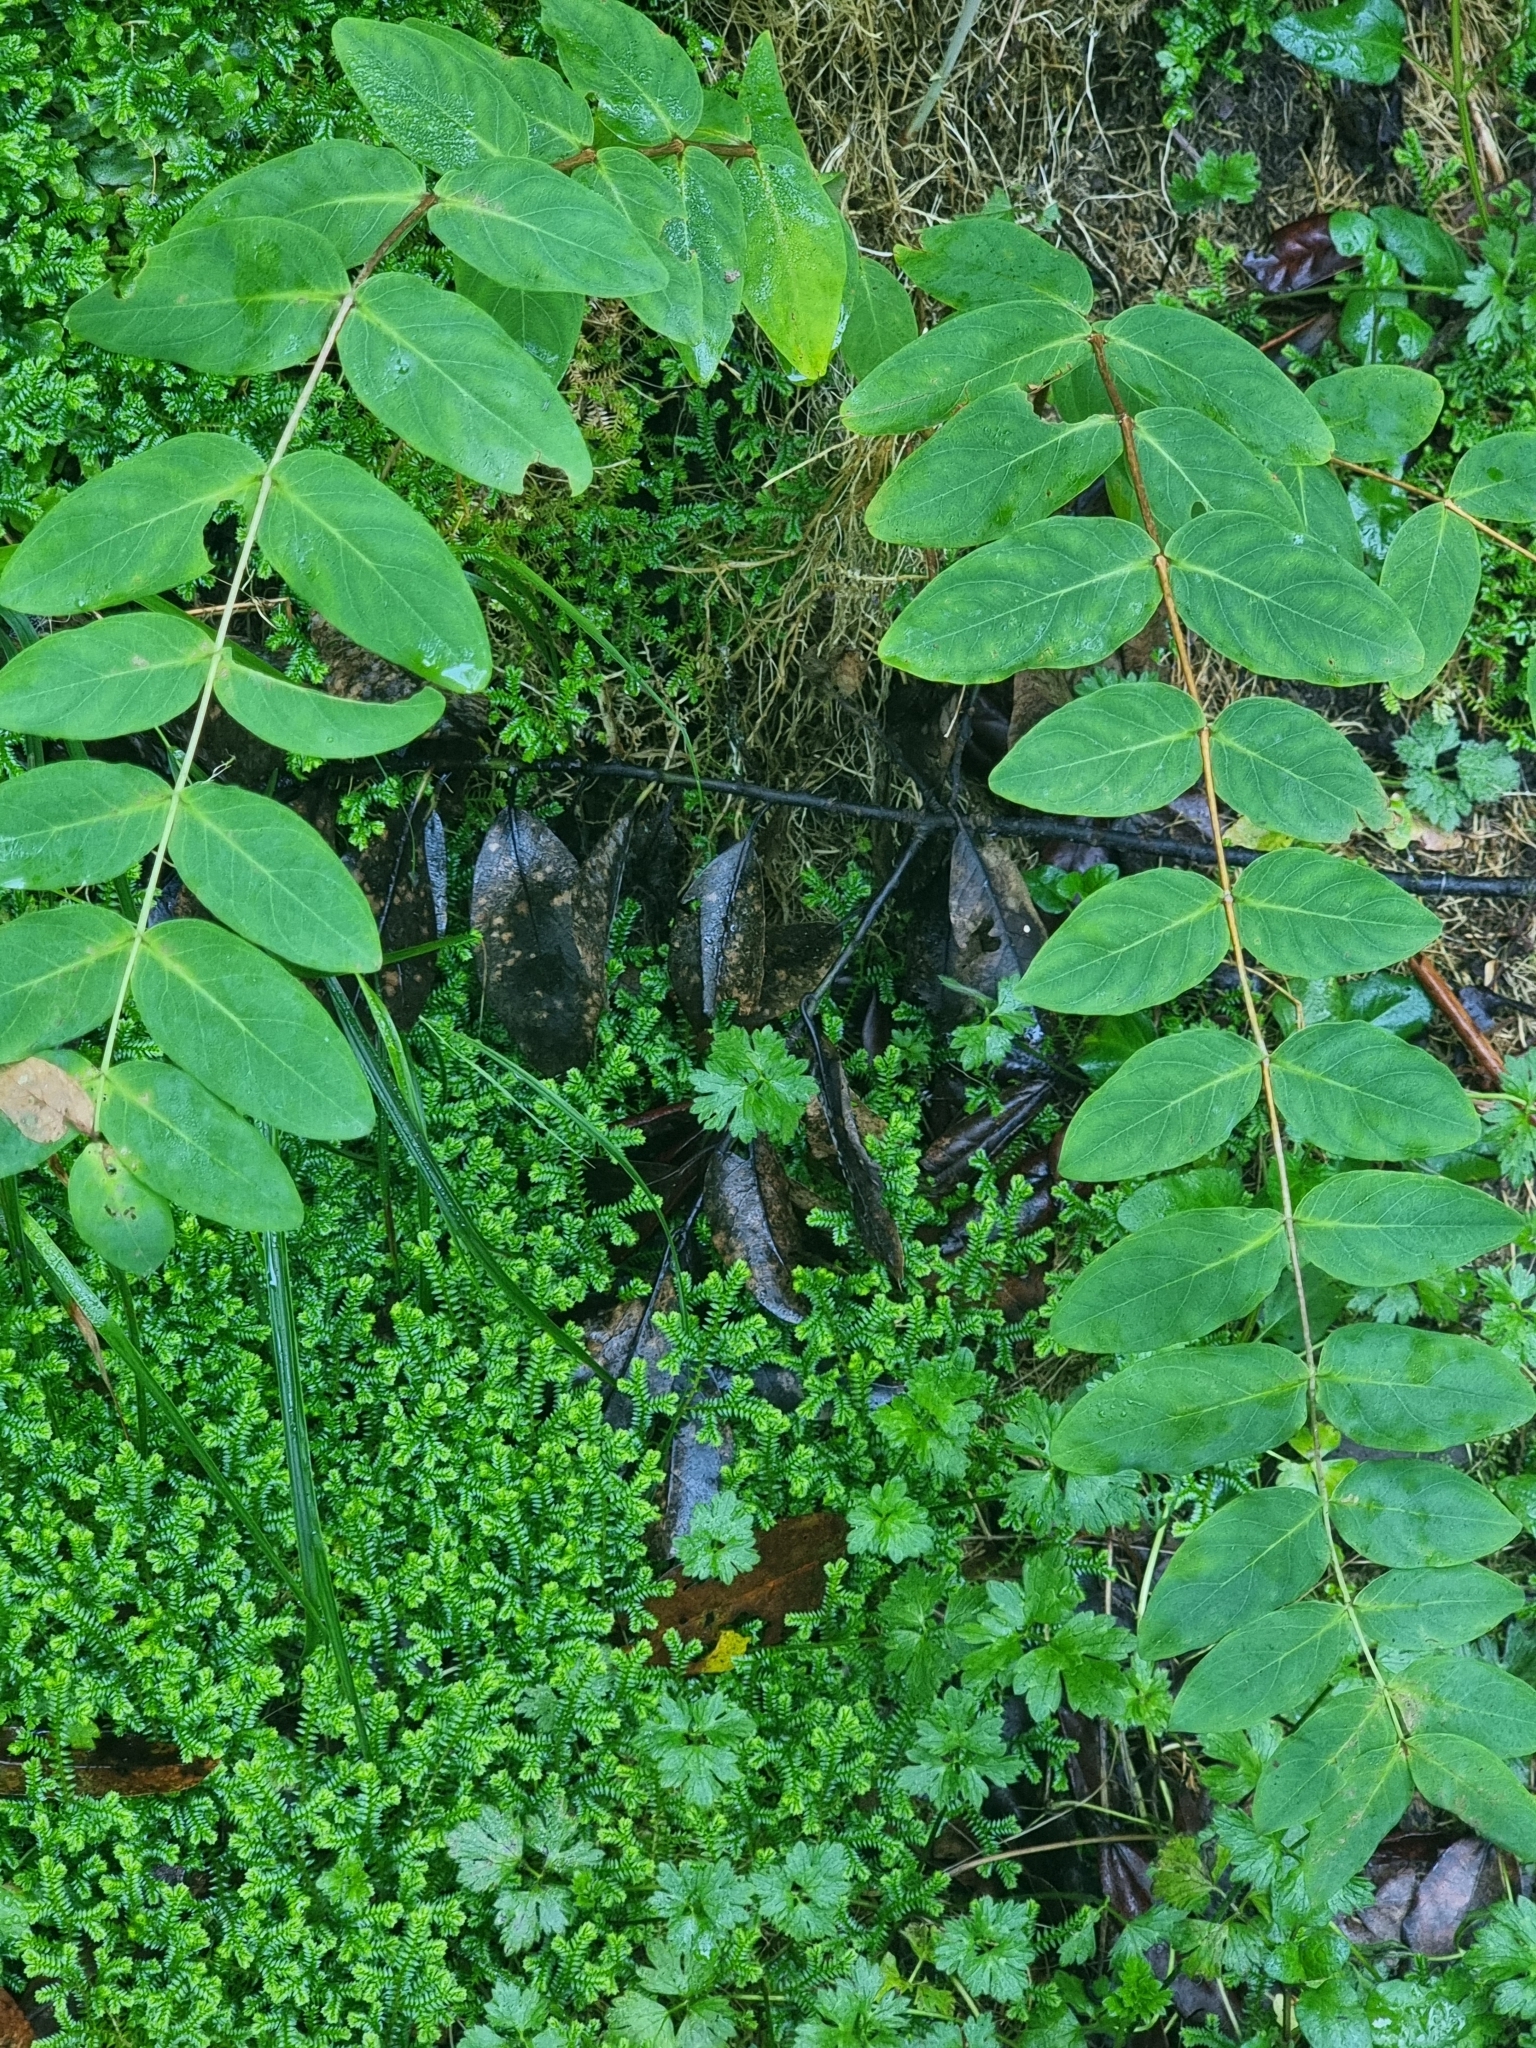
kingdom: Plantae
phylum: Tracheophyta
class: Magnoliopsida
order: Malpighiales
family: Hypericaceae
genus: Hypericum
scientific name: Hypericum grandifolium
